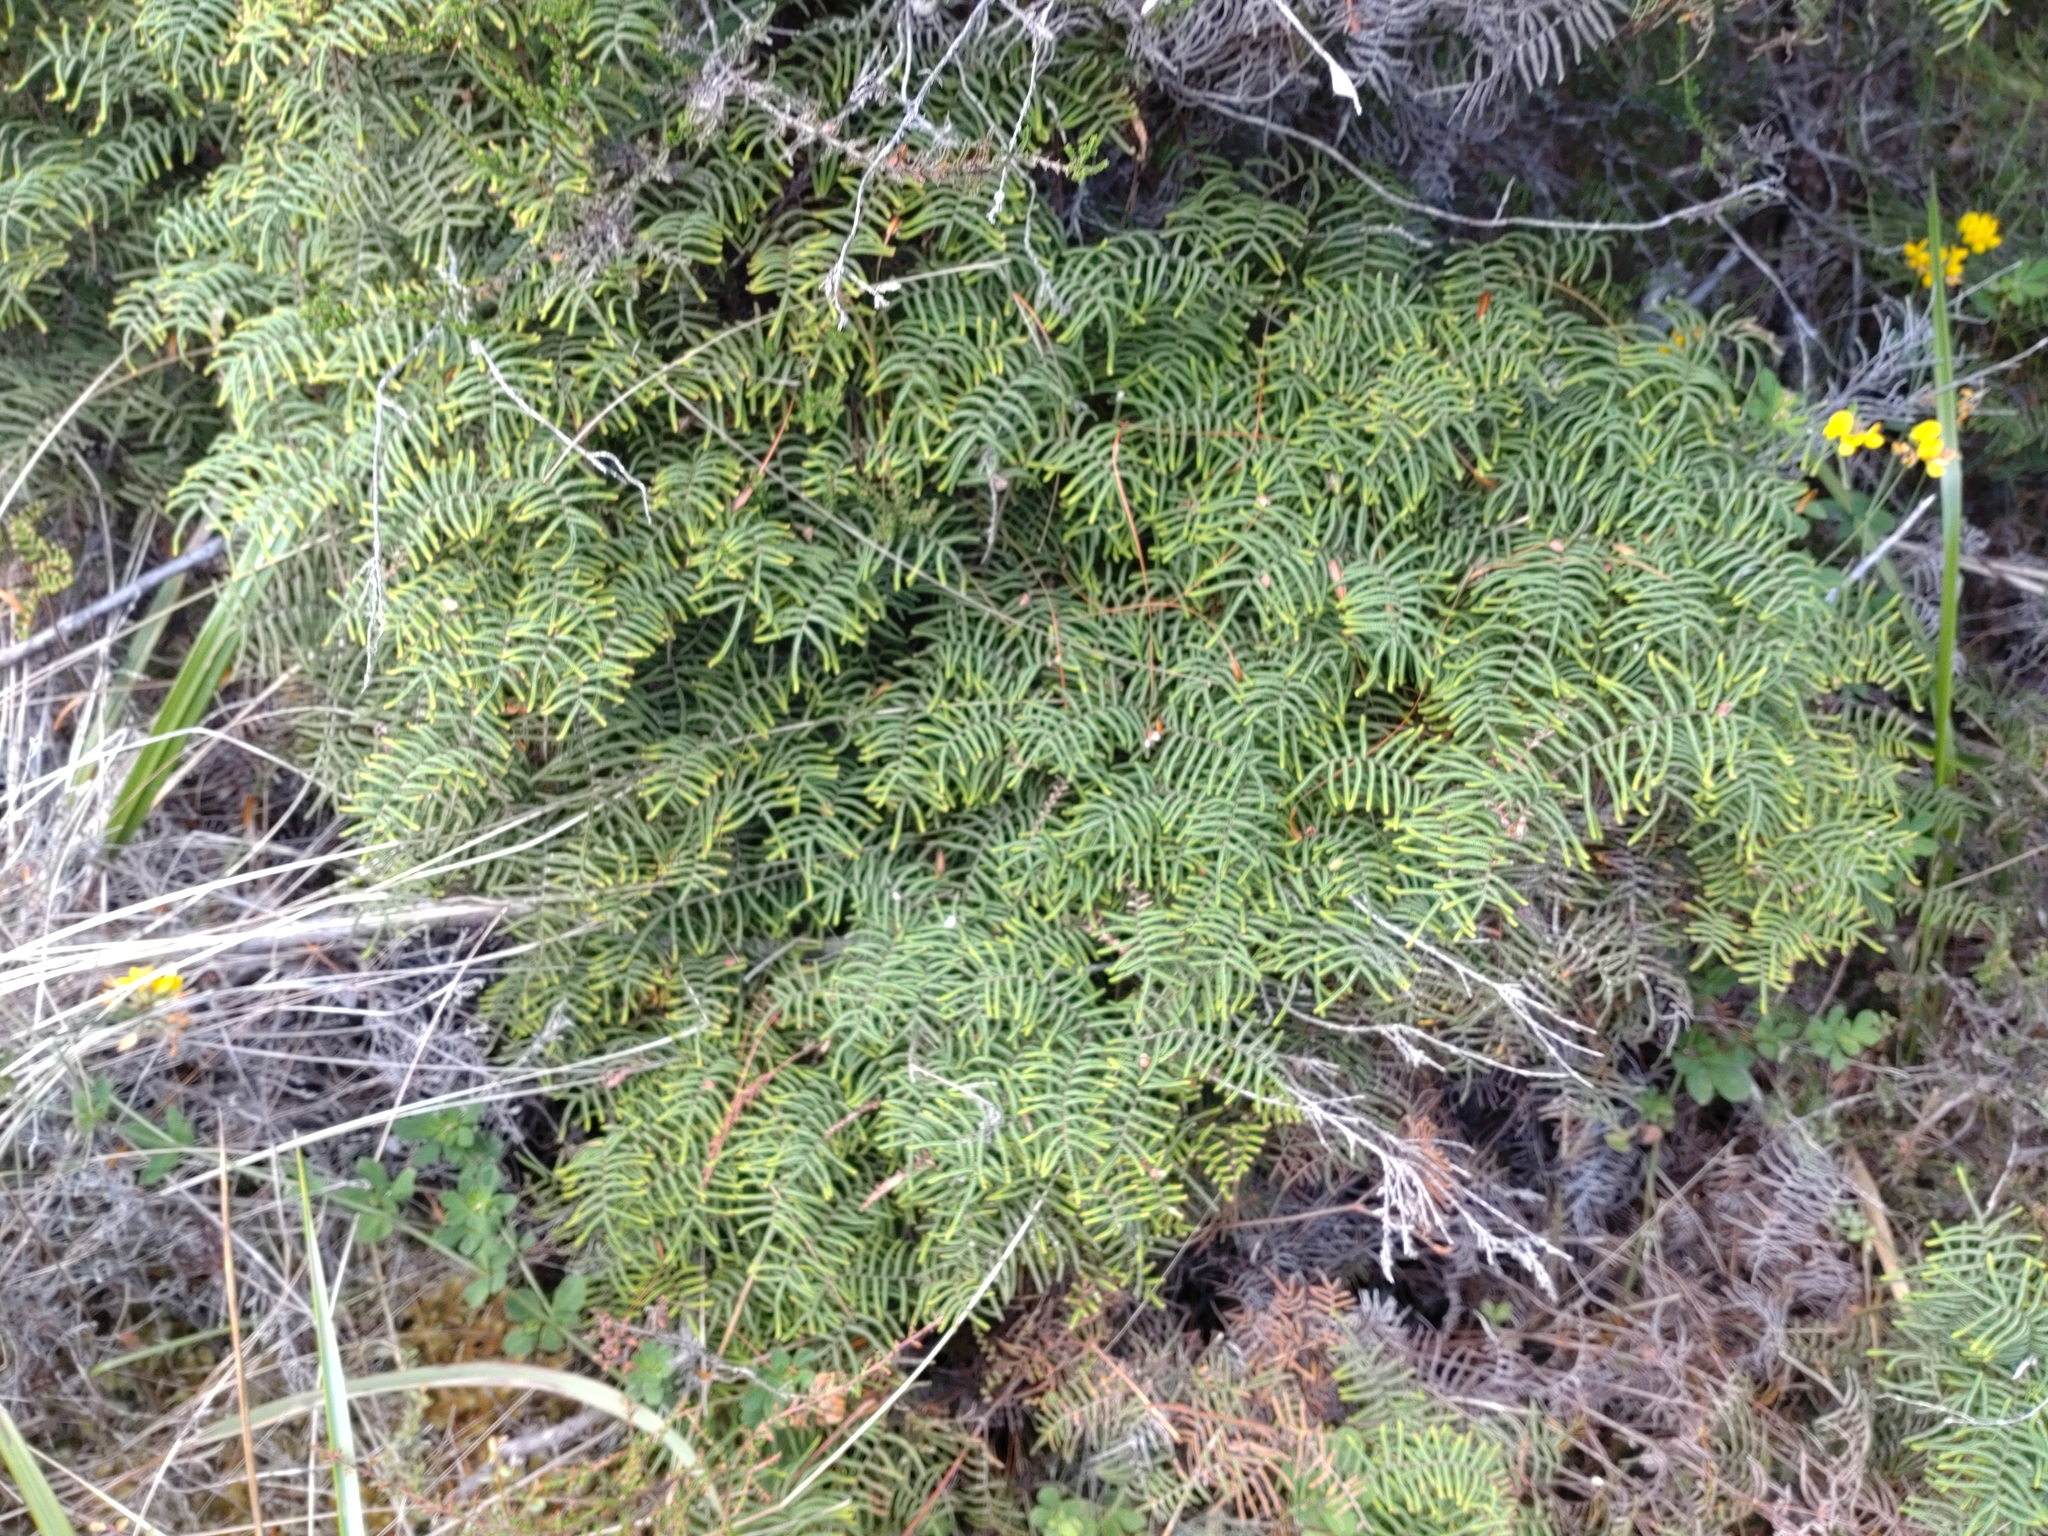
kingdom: Plantae
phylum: Tracheophyta
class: Polypodiopsida
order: Gleicheniales
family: Gleicheniaceae
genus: Gleichenia
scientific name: Gleichenia alpina
